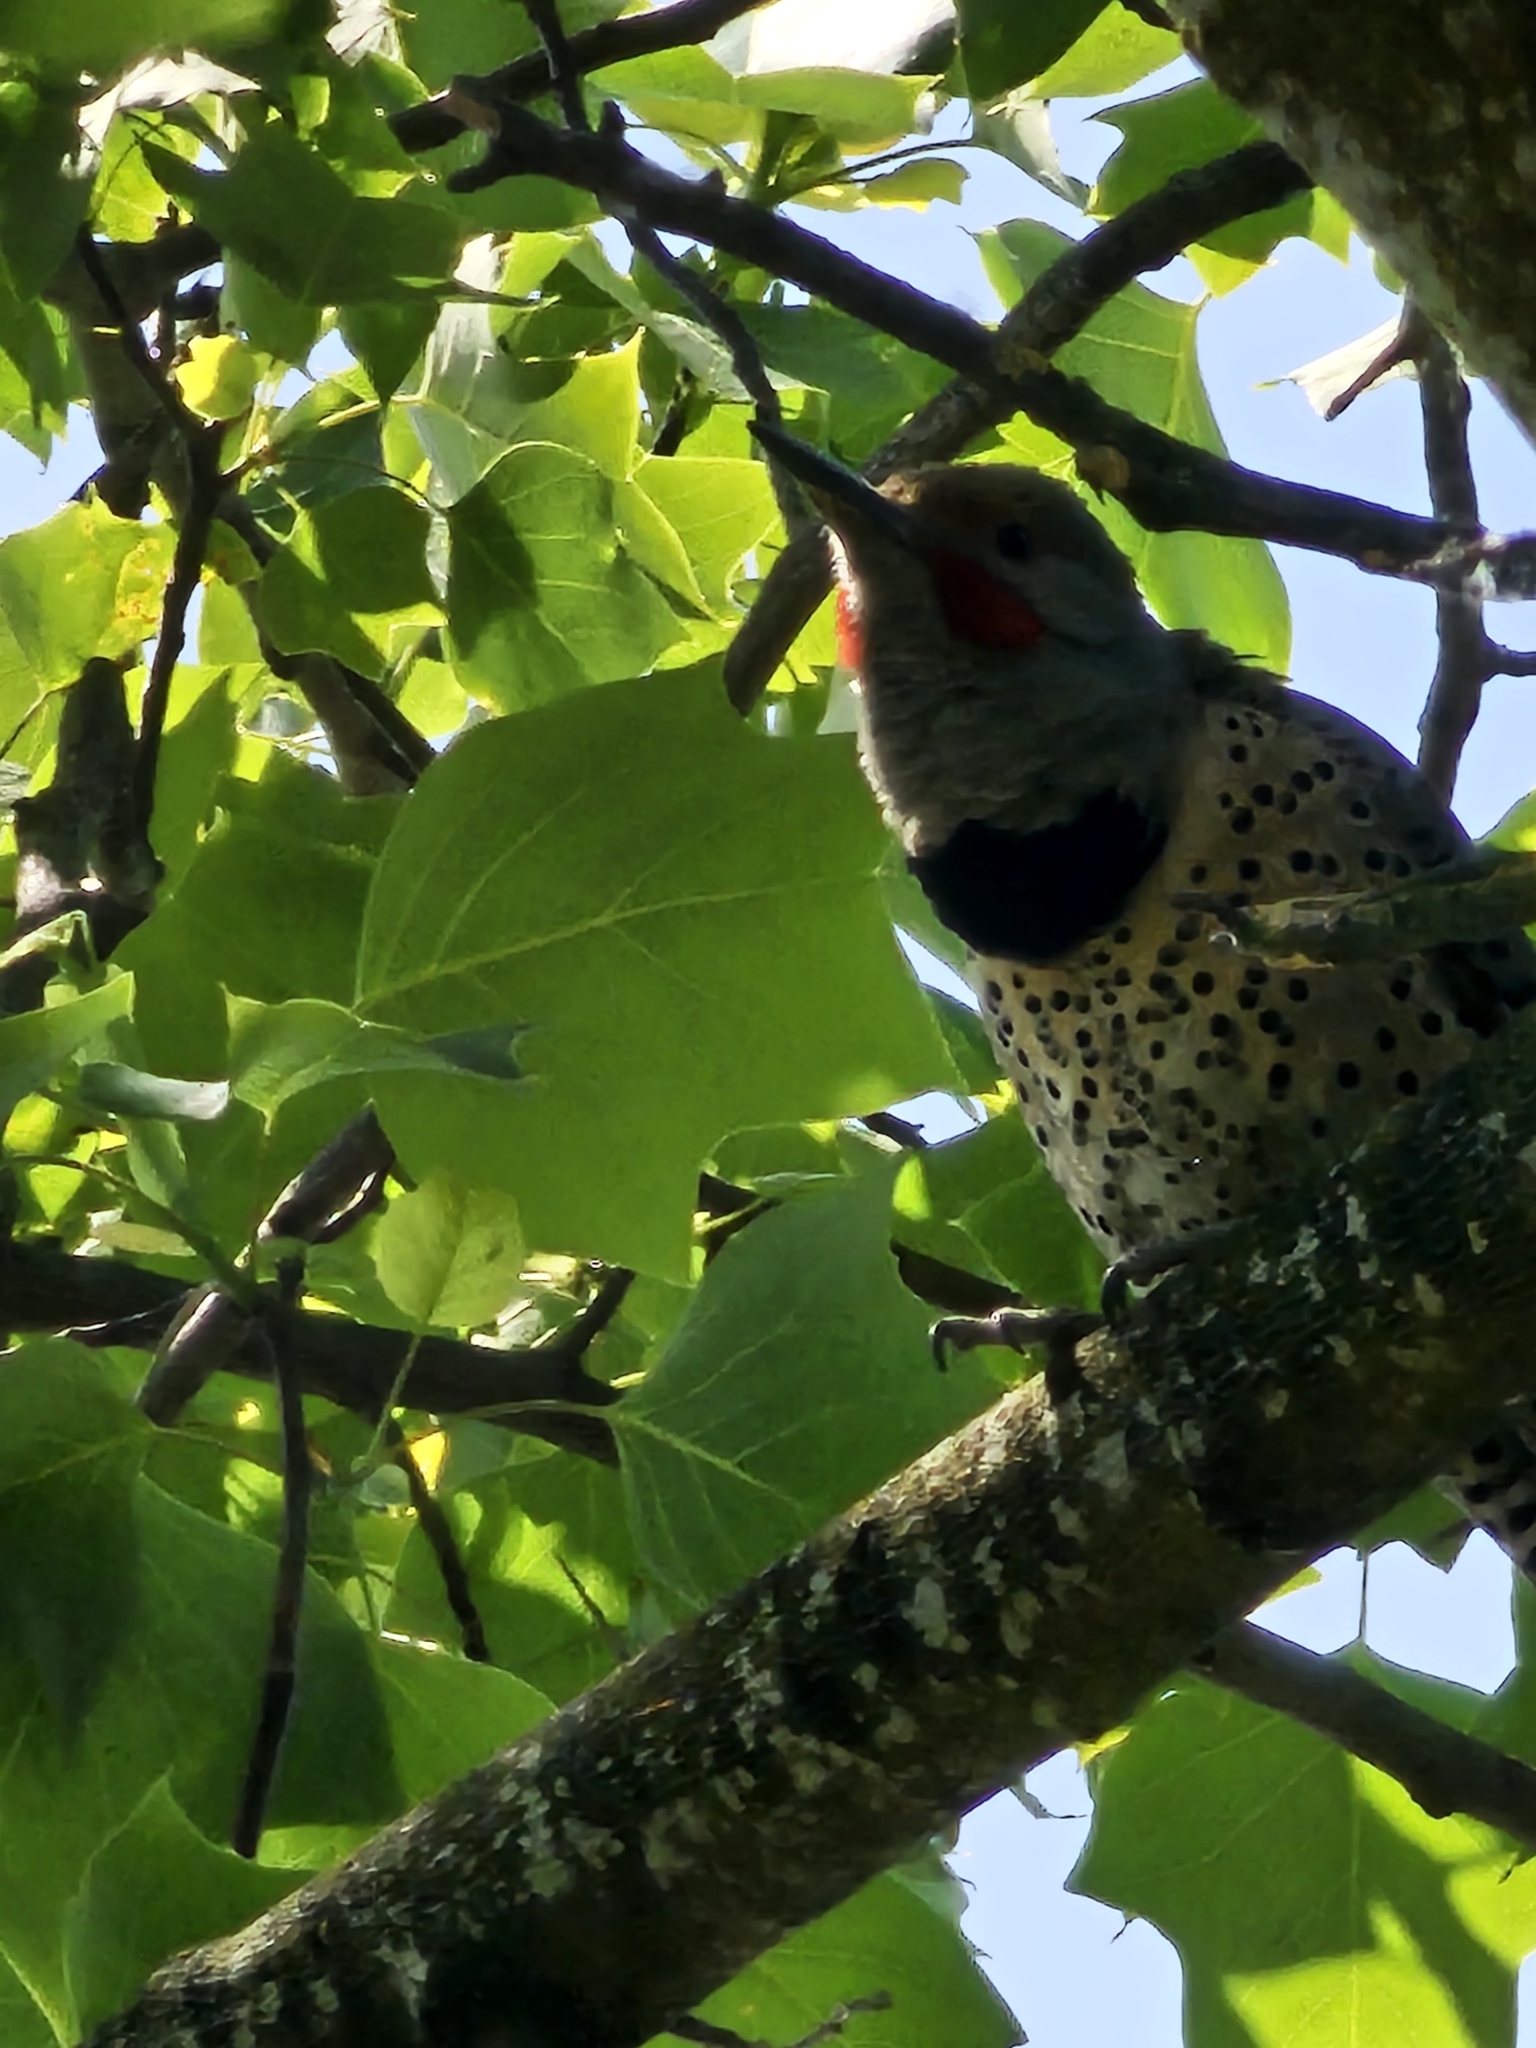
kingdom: Animalia
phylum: Chordata
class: Aves
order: Piciformes
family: Picidae
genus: Colaptes
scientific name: Colaptes auratus
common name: Northern flicker
